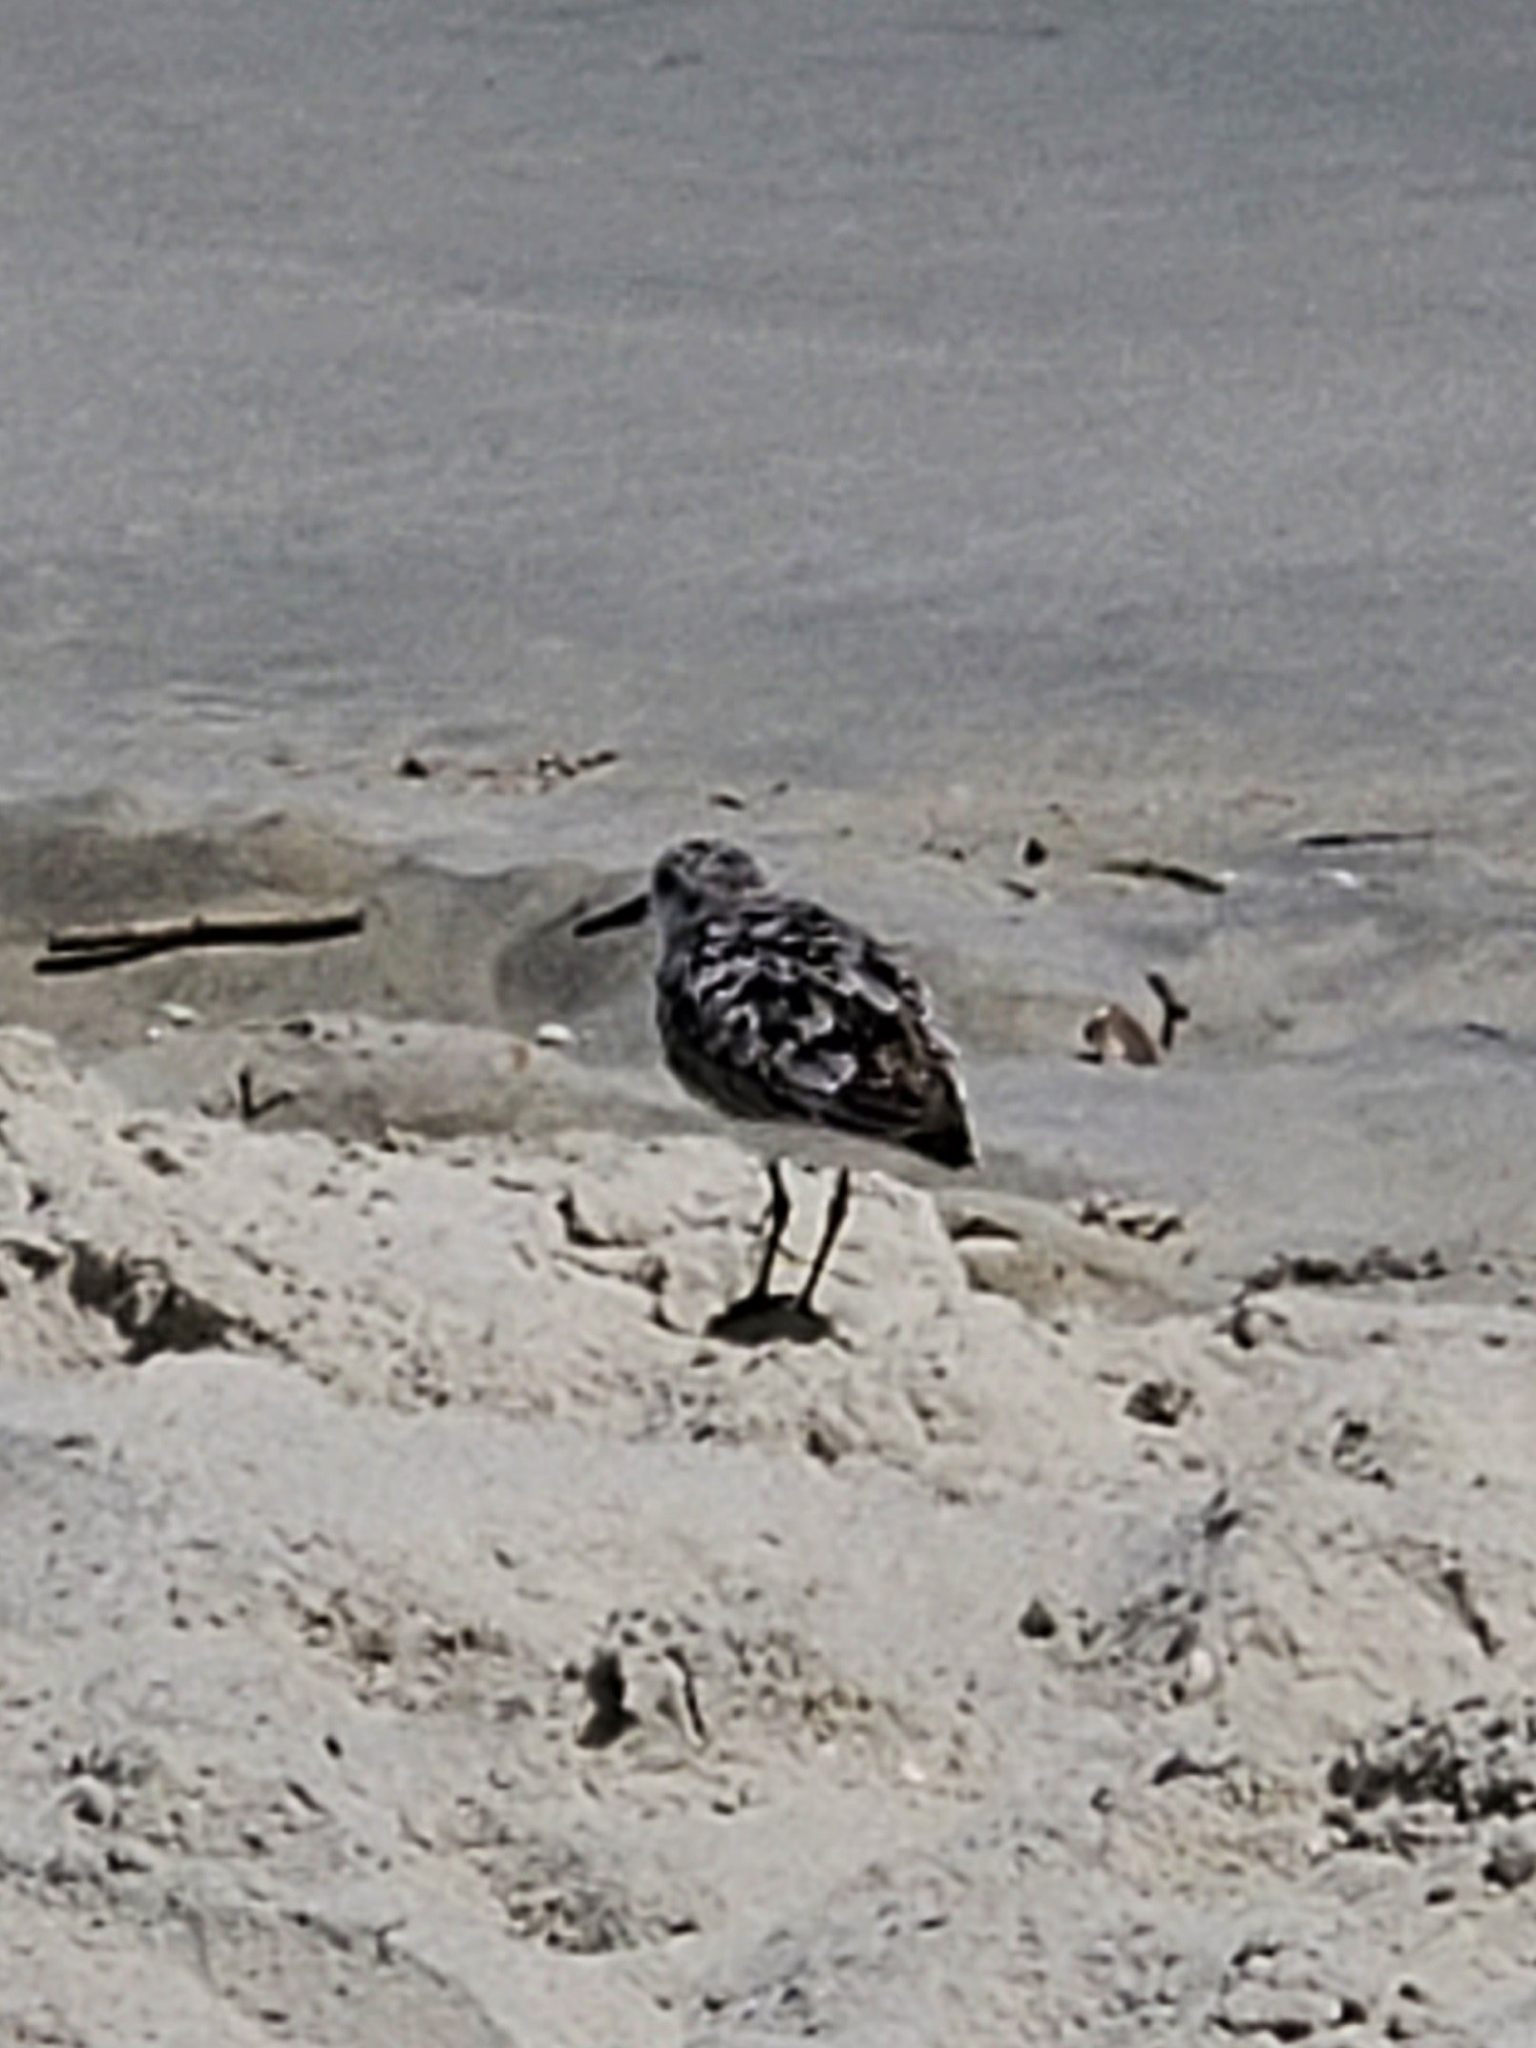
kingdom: Animalia
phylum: Chordata
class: Aves
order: Charadriiformes
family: Scolopacidae
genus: Calidris
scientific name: Calidris alba
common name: Sanderling
